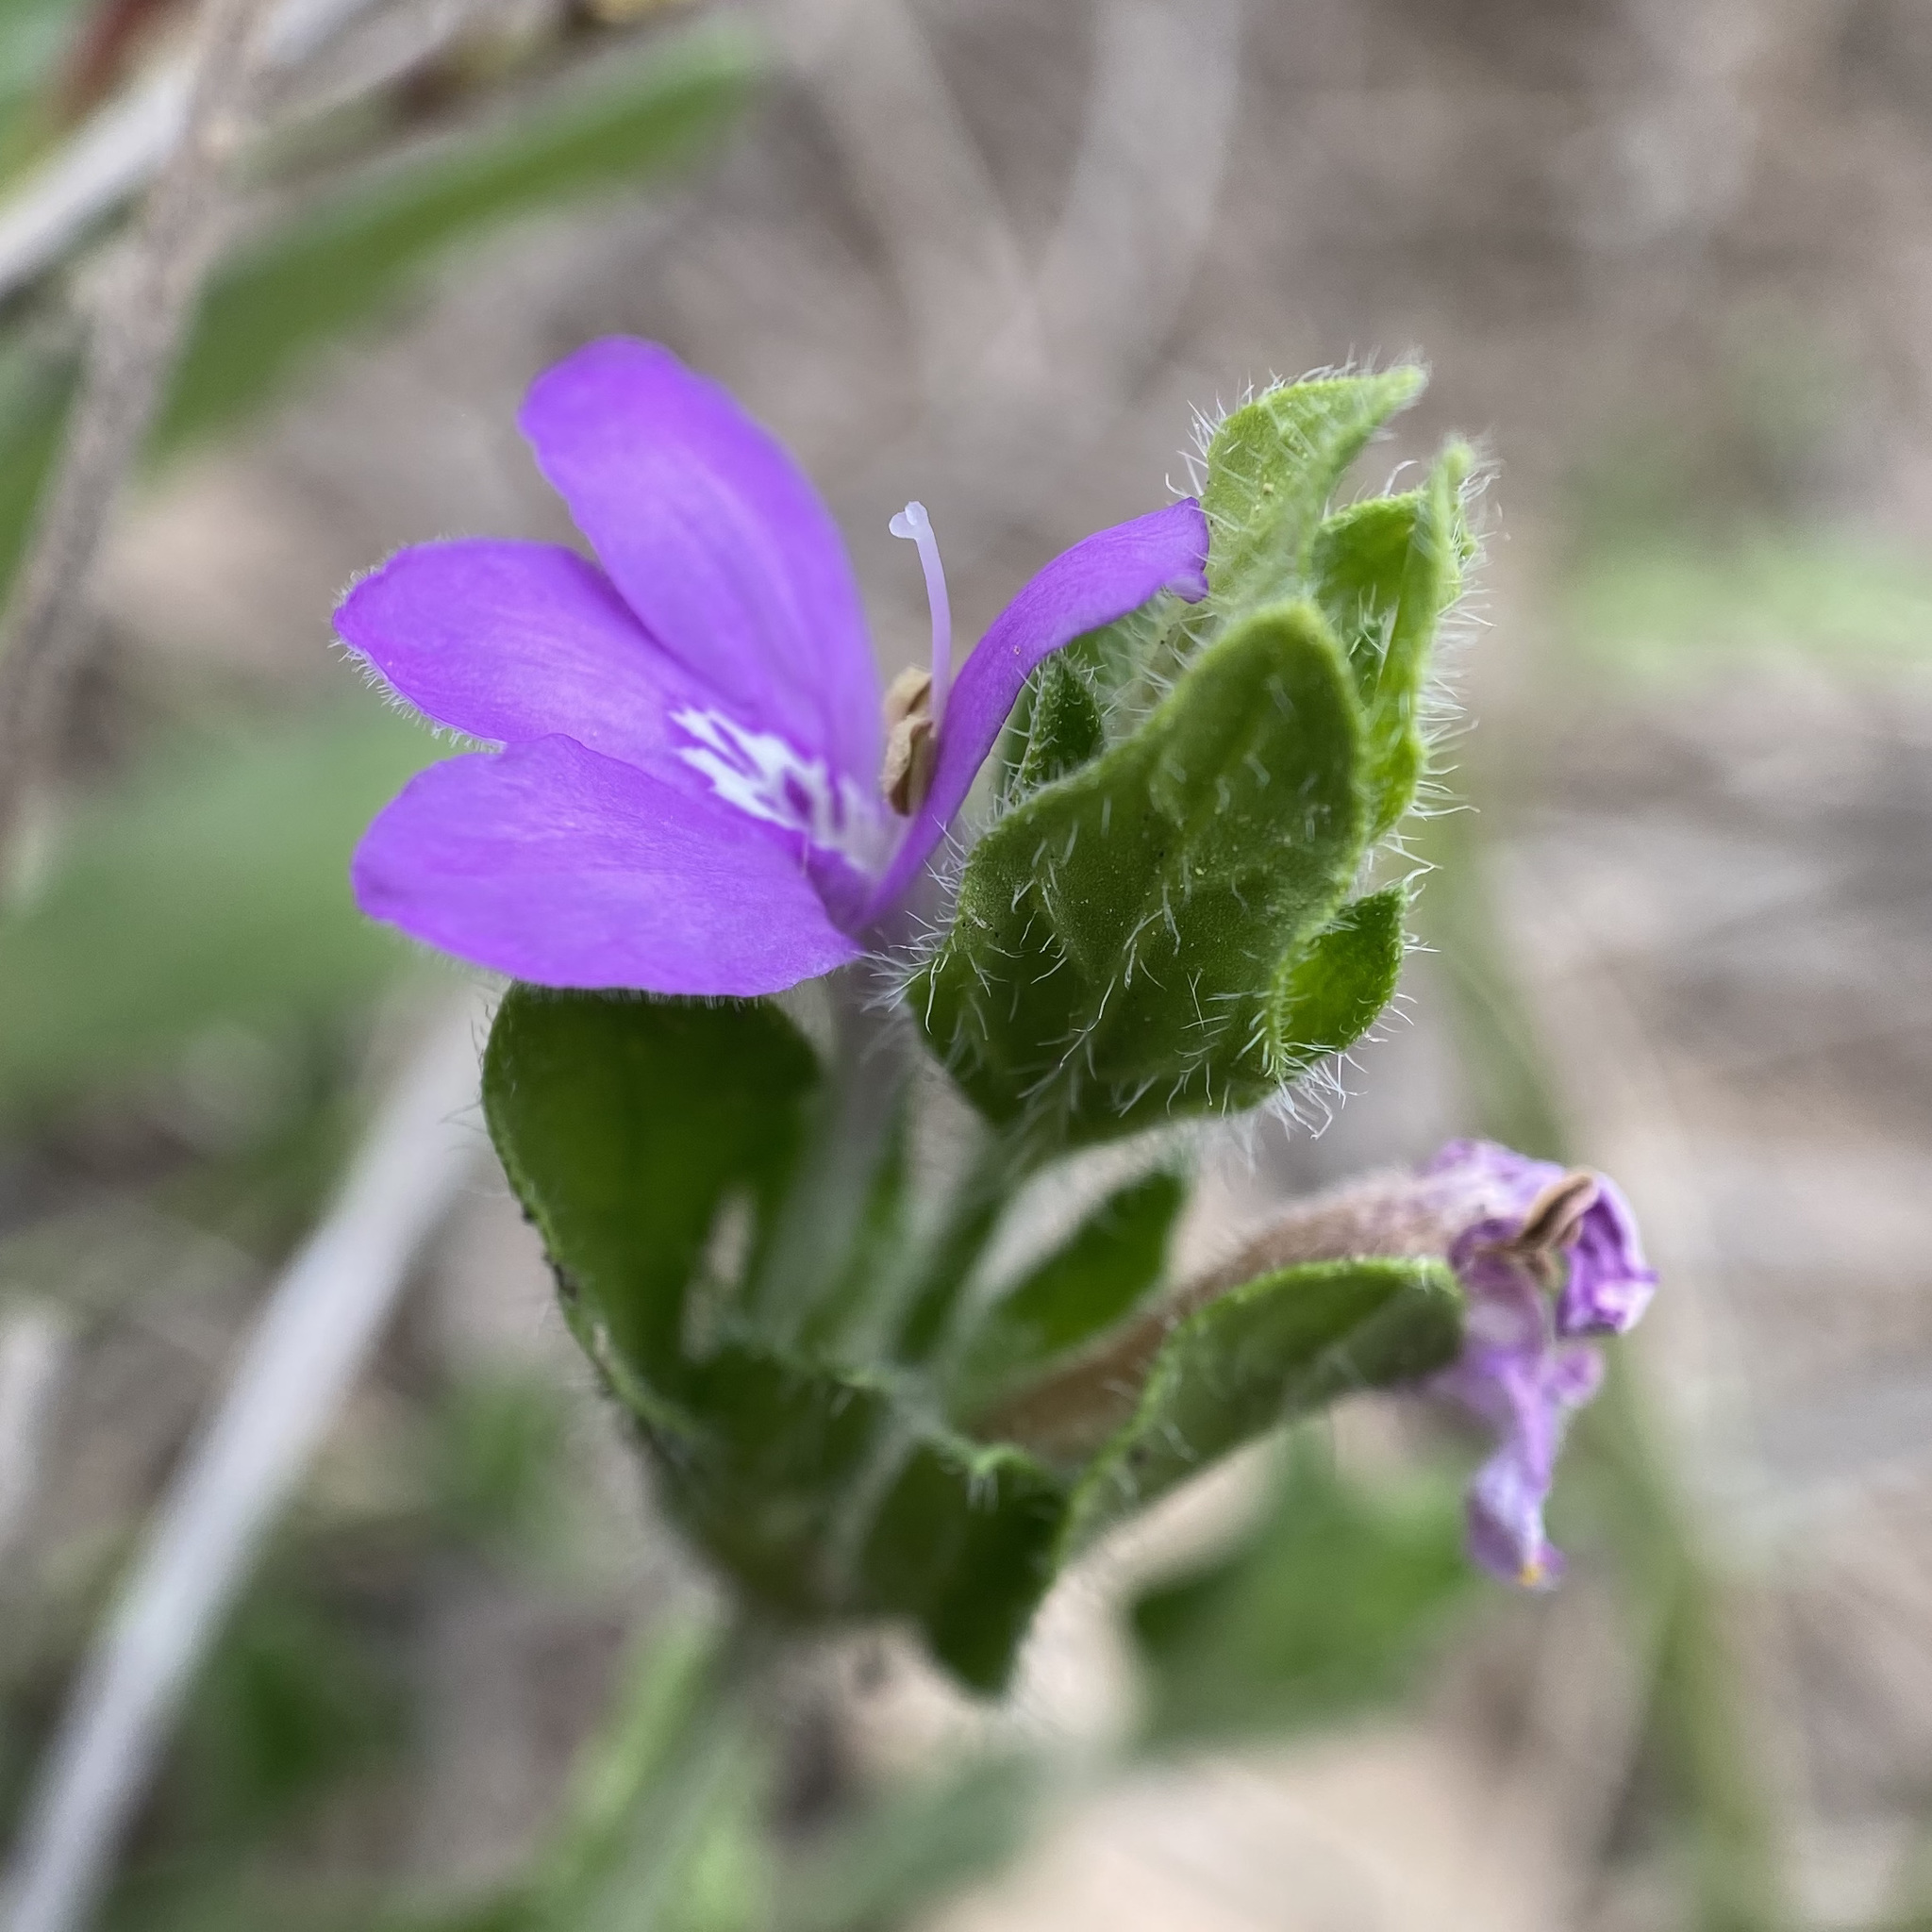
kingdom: Plantae
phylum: Tracheophyta
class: Magnoliopsida
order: Lamiales
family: Acanthaceae
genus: Justicia
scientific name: Justicia pilosella
